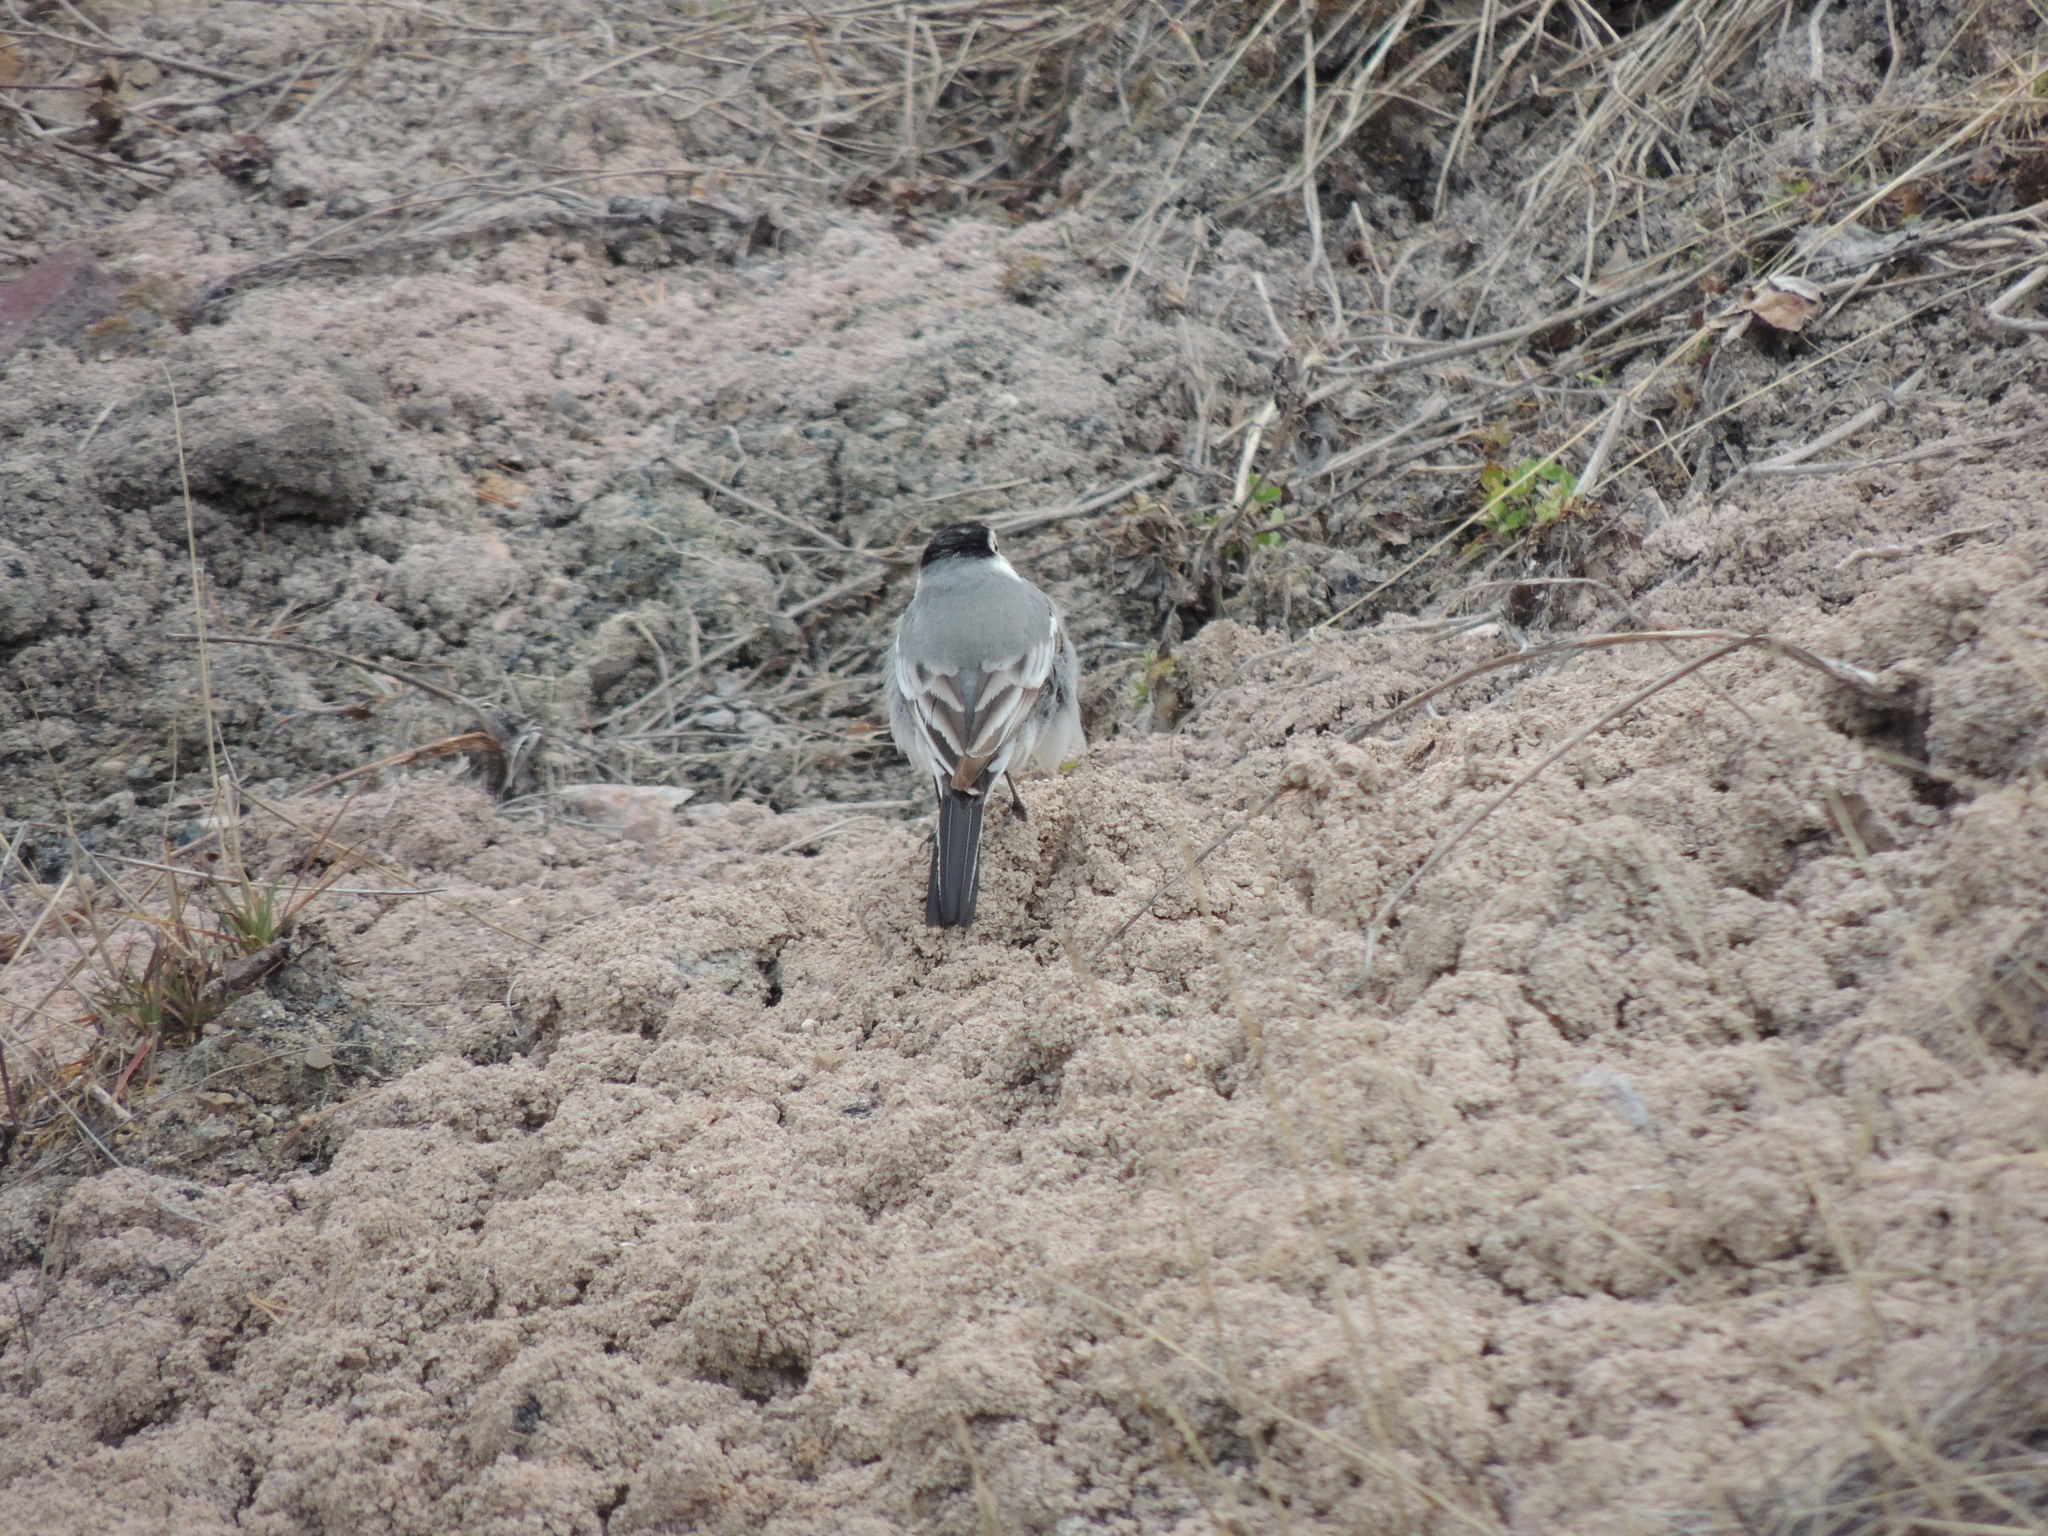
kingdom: Animalia
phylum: Chordata
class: Aves
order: Passeriformes
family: Motacillidae
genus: Motacilla
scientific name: Motacilla alba
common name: White wagtail
